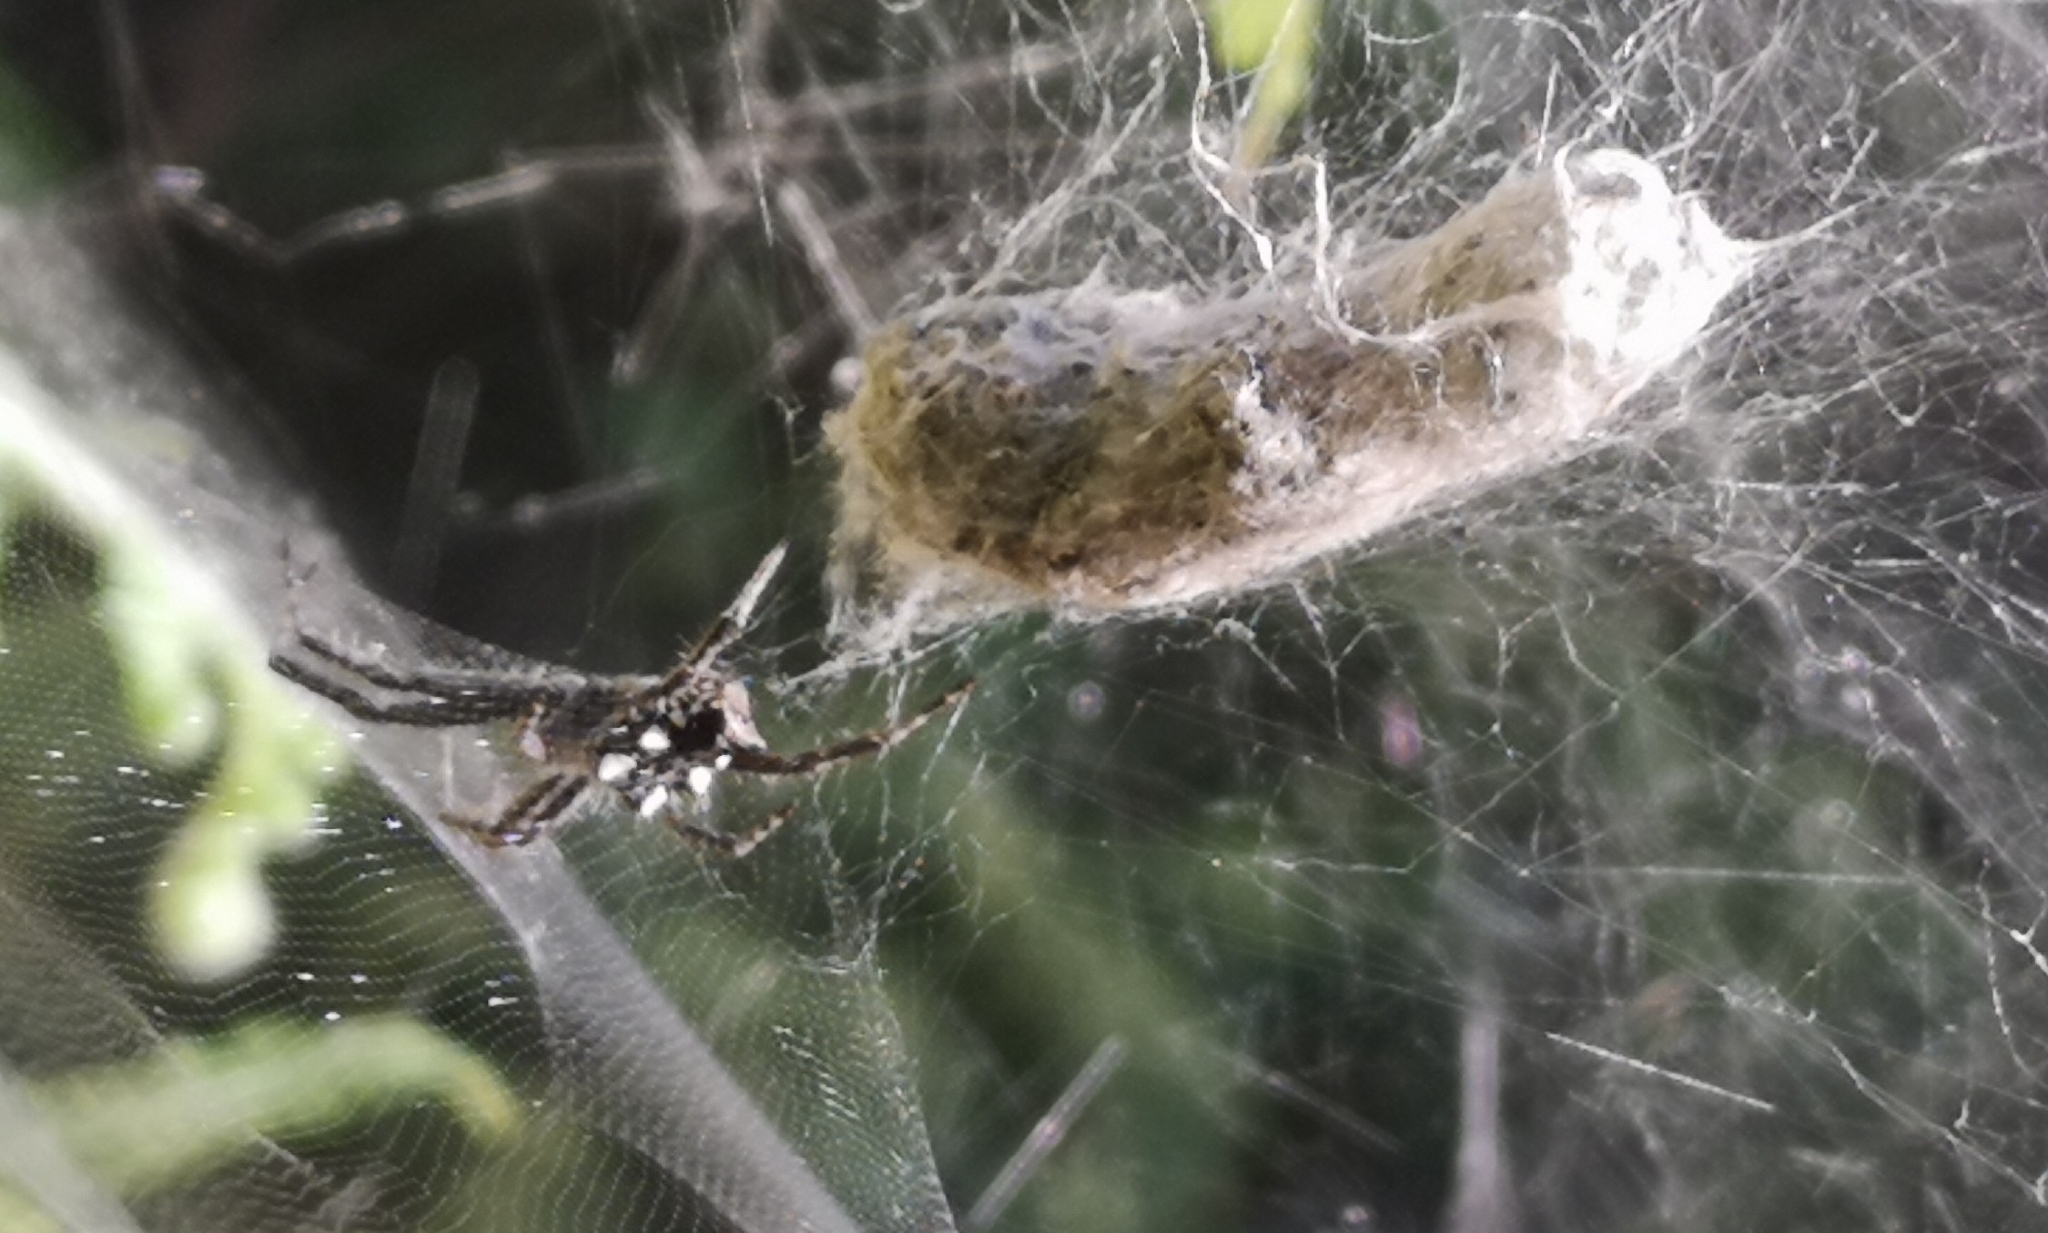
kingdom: Animalia
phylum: Arthropoda
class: Arachnida
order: Araneae
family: Araneidae
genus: Cyrtophora
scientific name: Cyrtophora citricola
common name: Orb weavers
